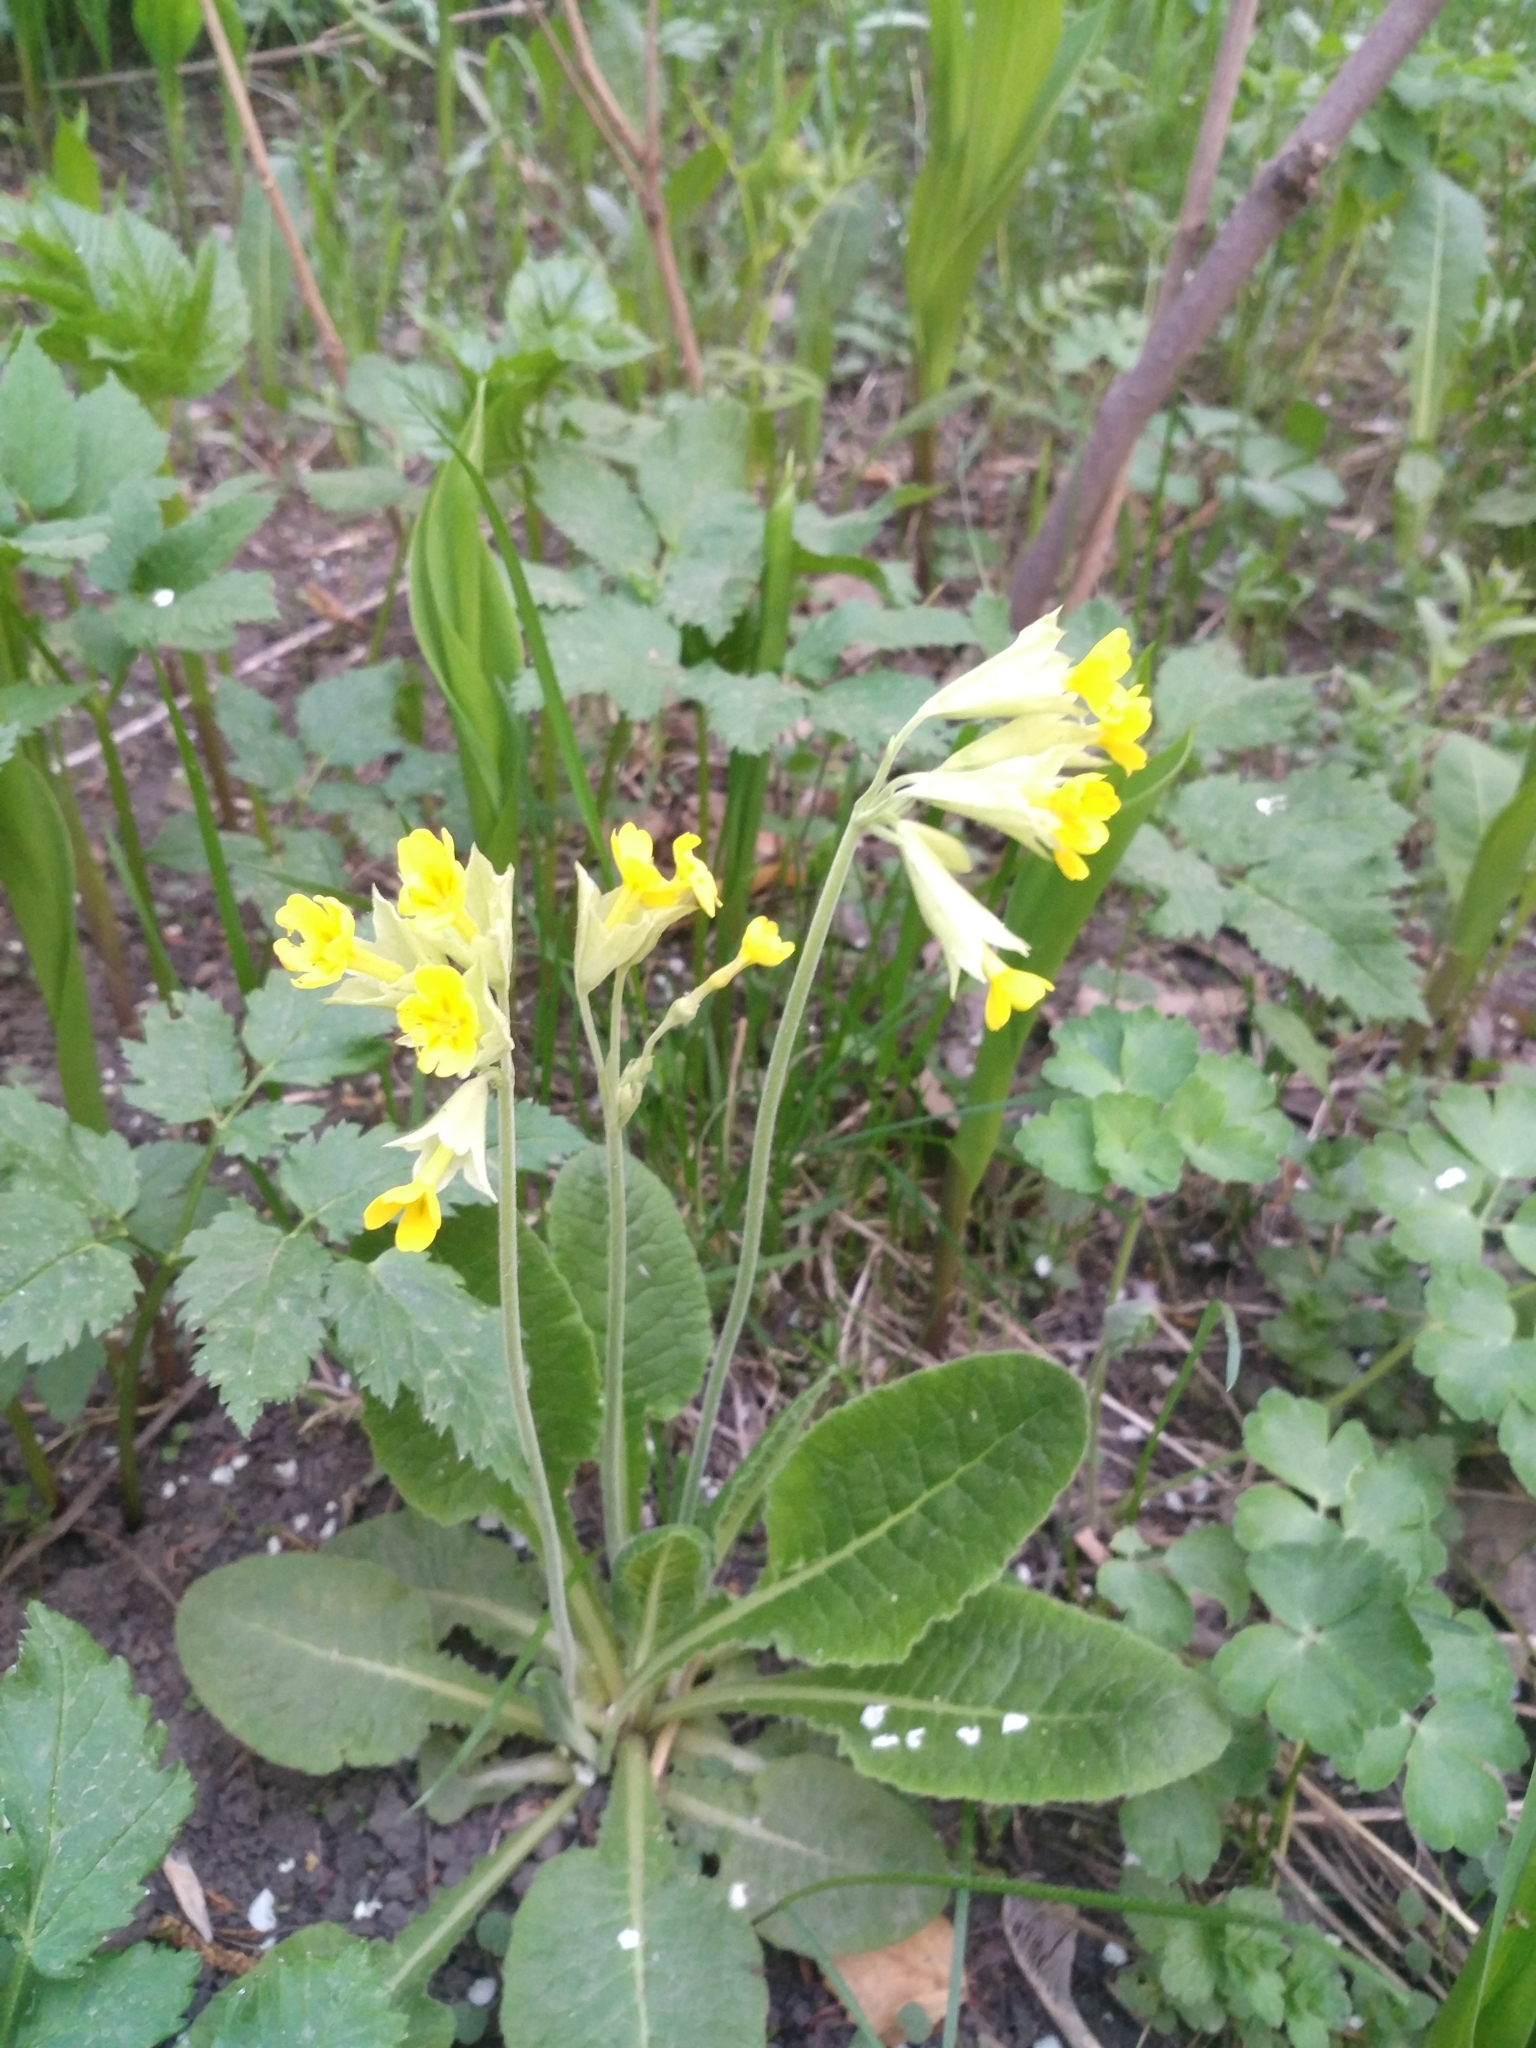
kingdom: Plantae
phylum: Tracheophyta
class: Magnoliopsida
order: Ericales
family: Primulaceae
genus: Primula
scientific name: Primula veris
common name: Cowslip
